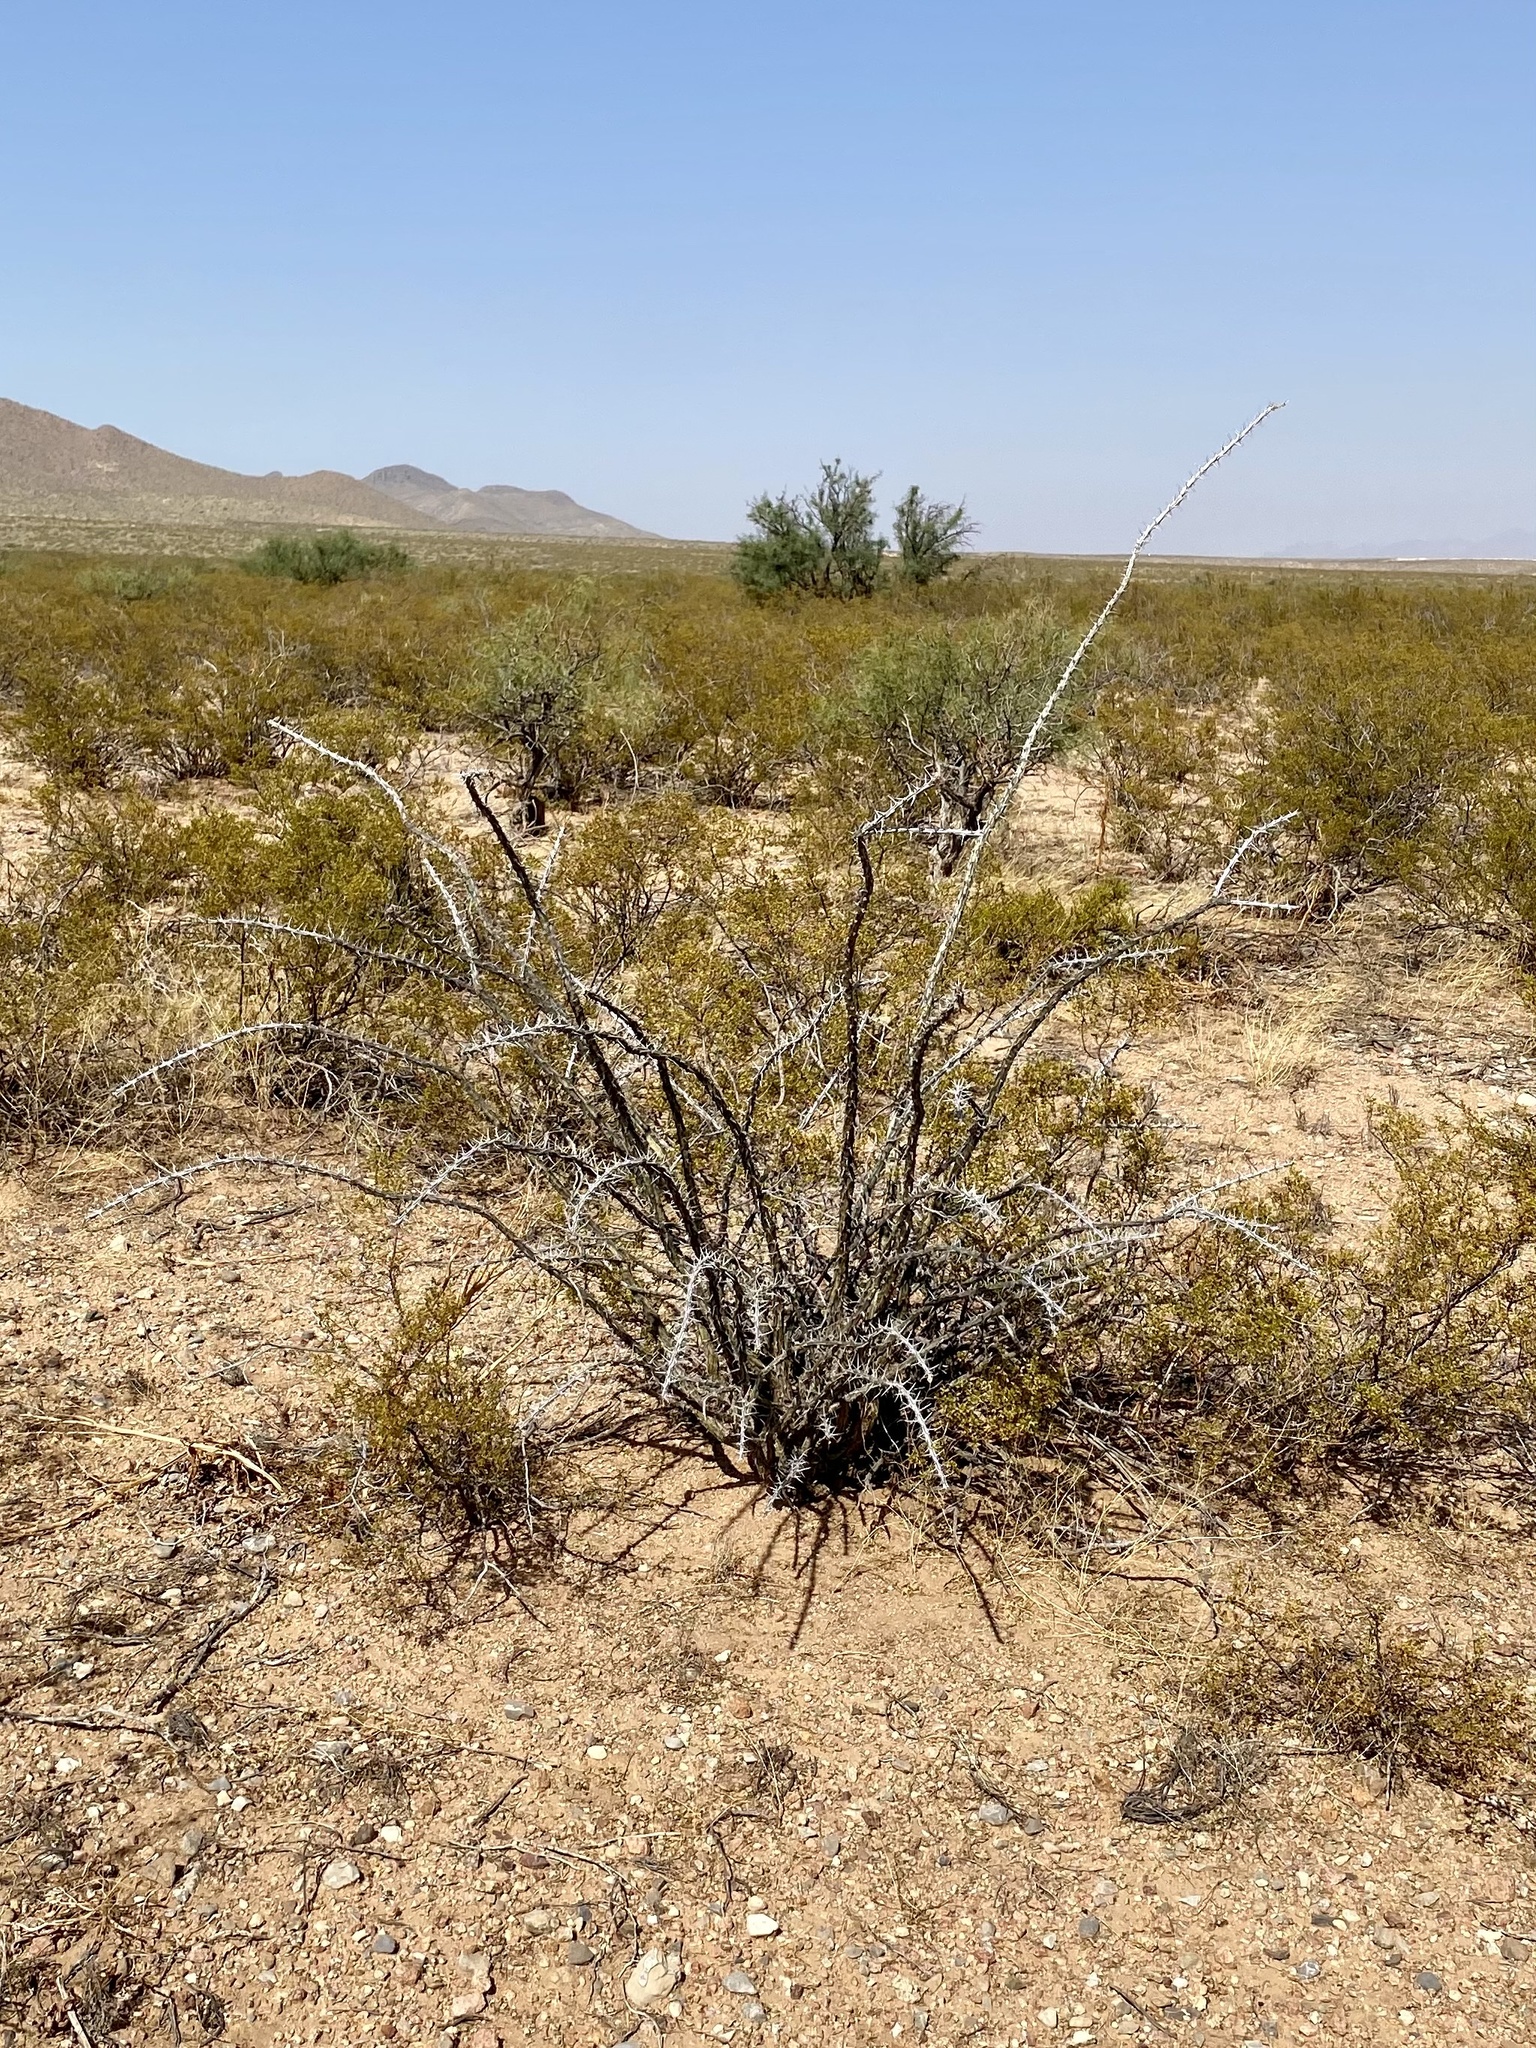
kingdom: Plantae
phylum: Tracheophyta
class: Magnoliopsida
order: Ericales
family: Fouquieriaceae
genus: Fouquieria
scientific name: Fouquieria splendens
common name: Vine-cactus
